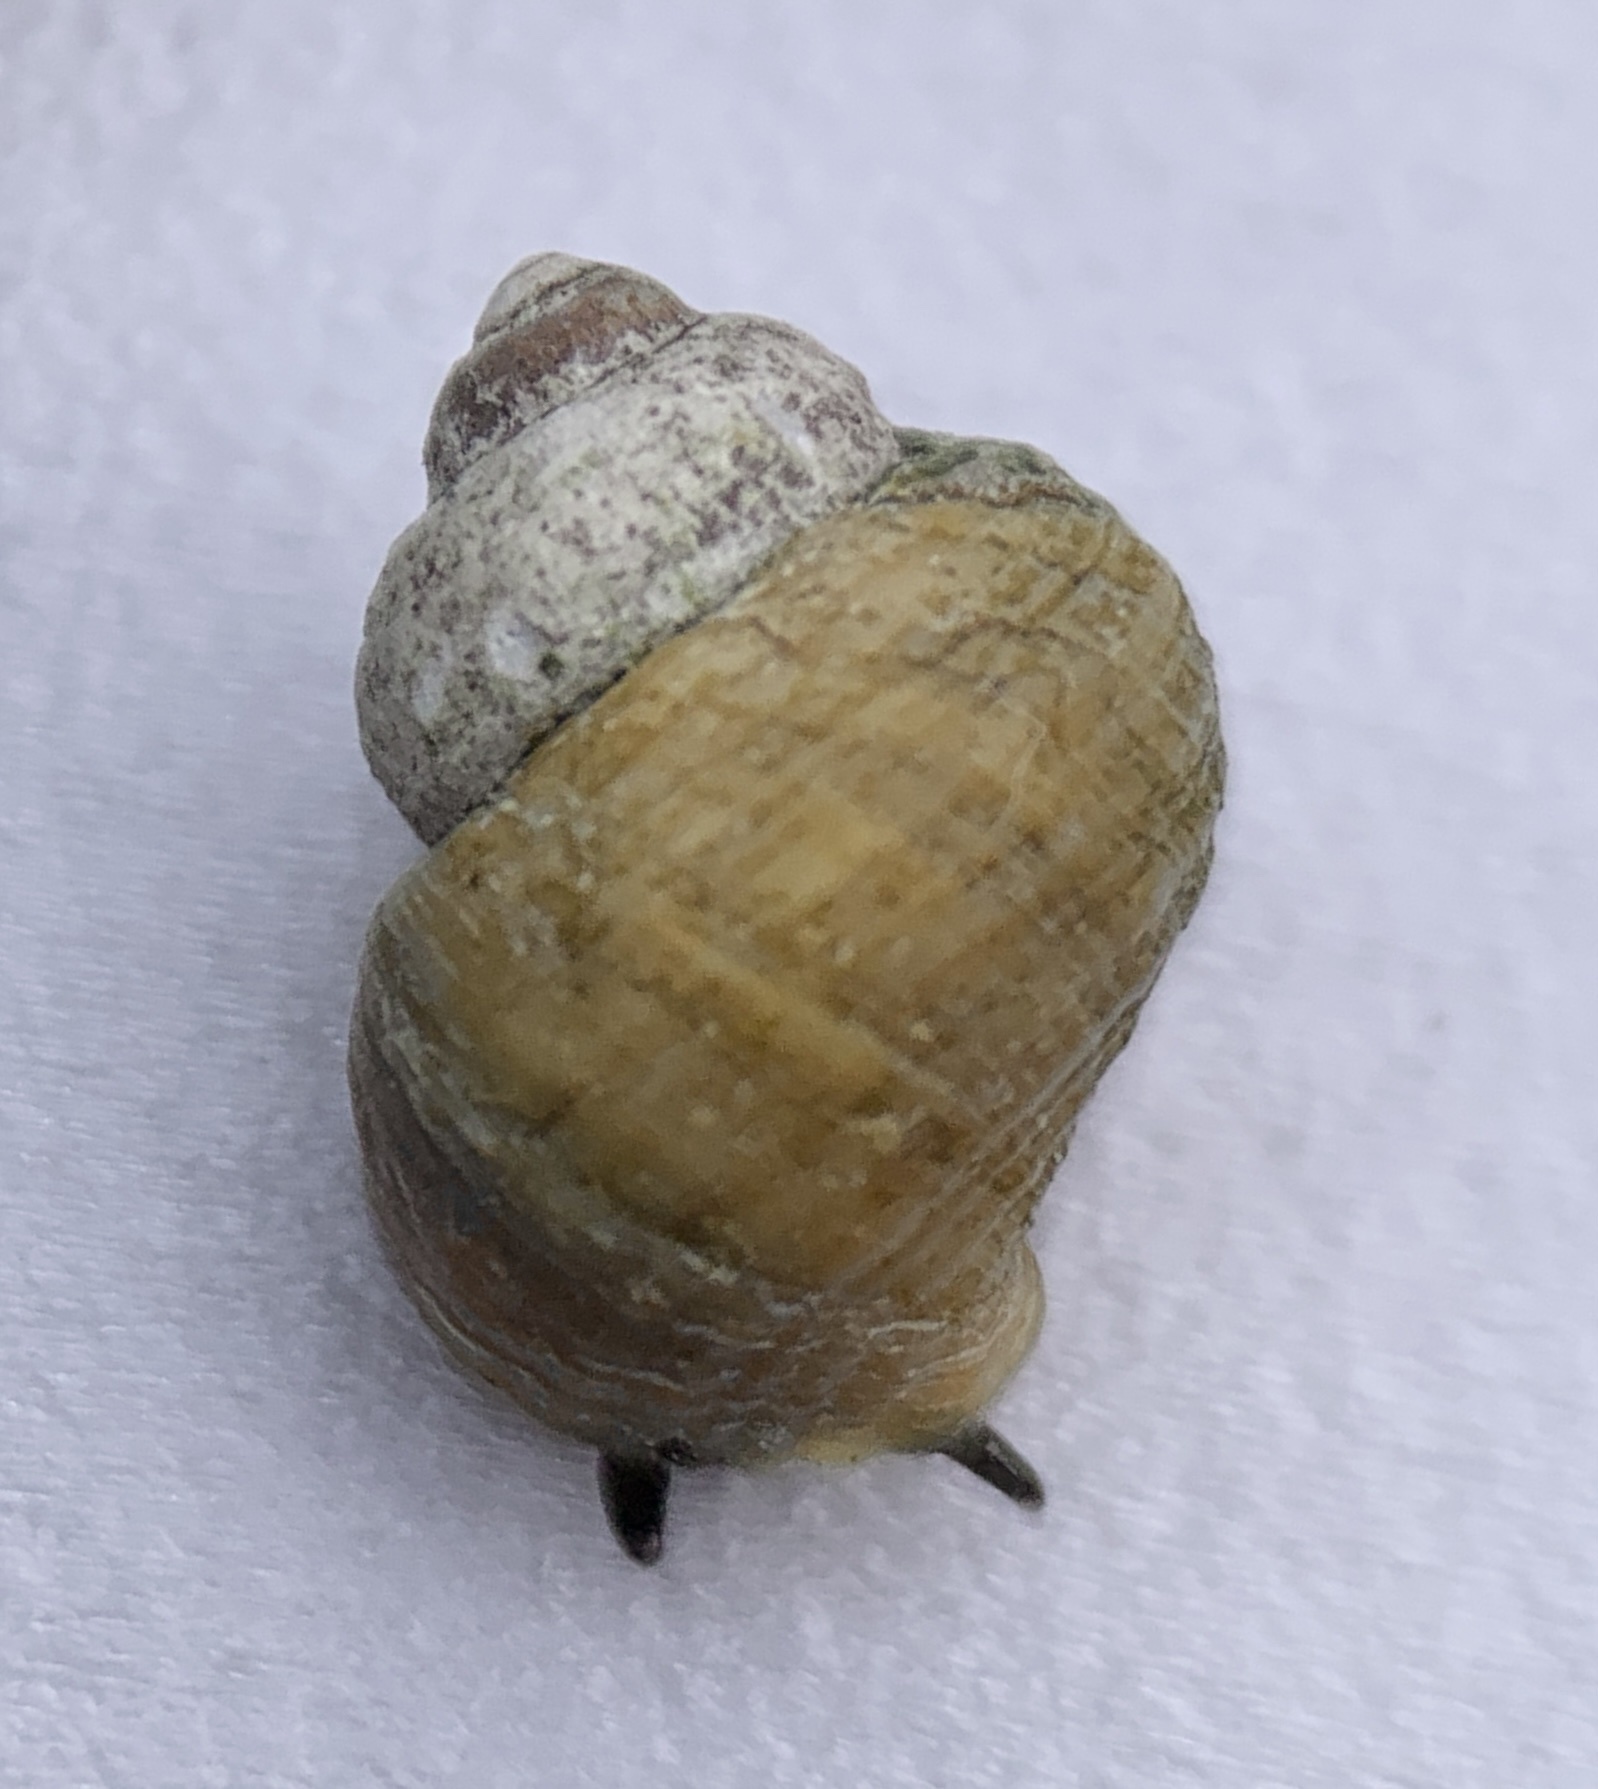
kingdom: Animalia
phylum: Mollusca
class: Gastropoda
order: Littorinimorpha
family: Littorinidae
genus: Littorina
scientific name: Littorina saxatilis
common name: Black-lined periwinkle
